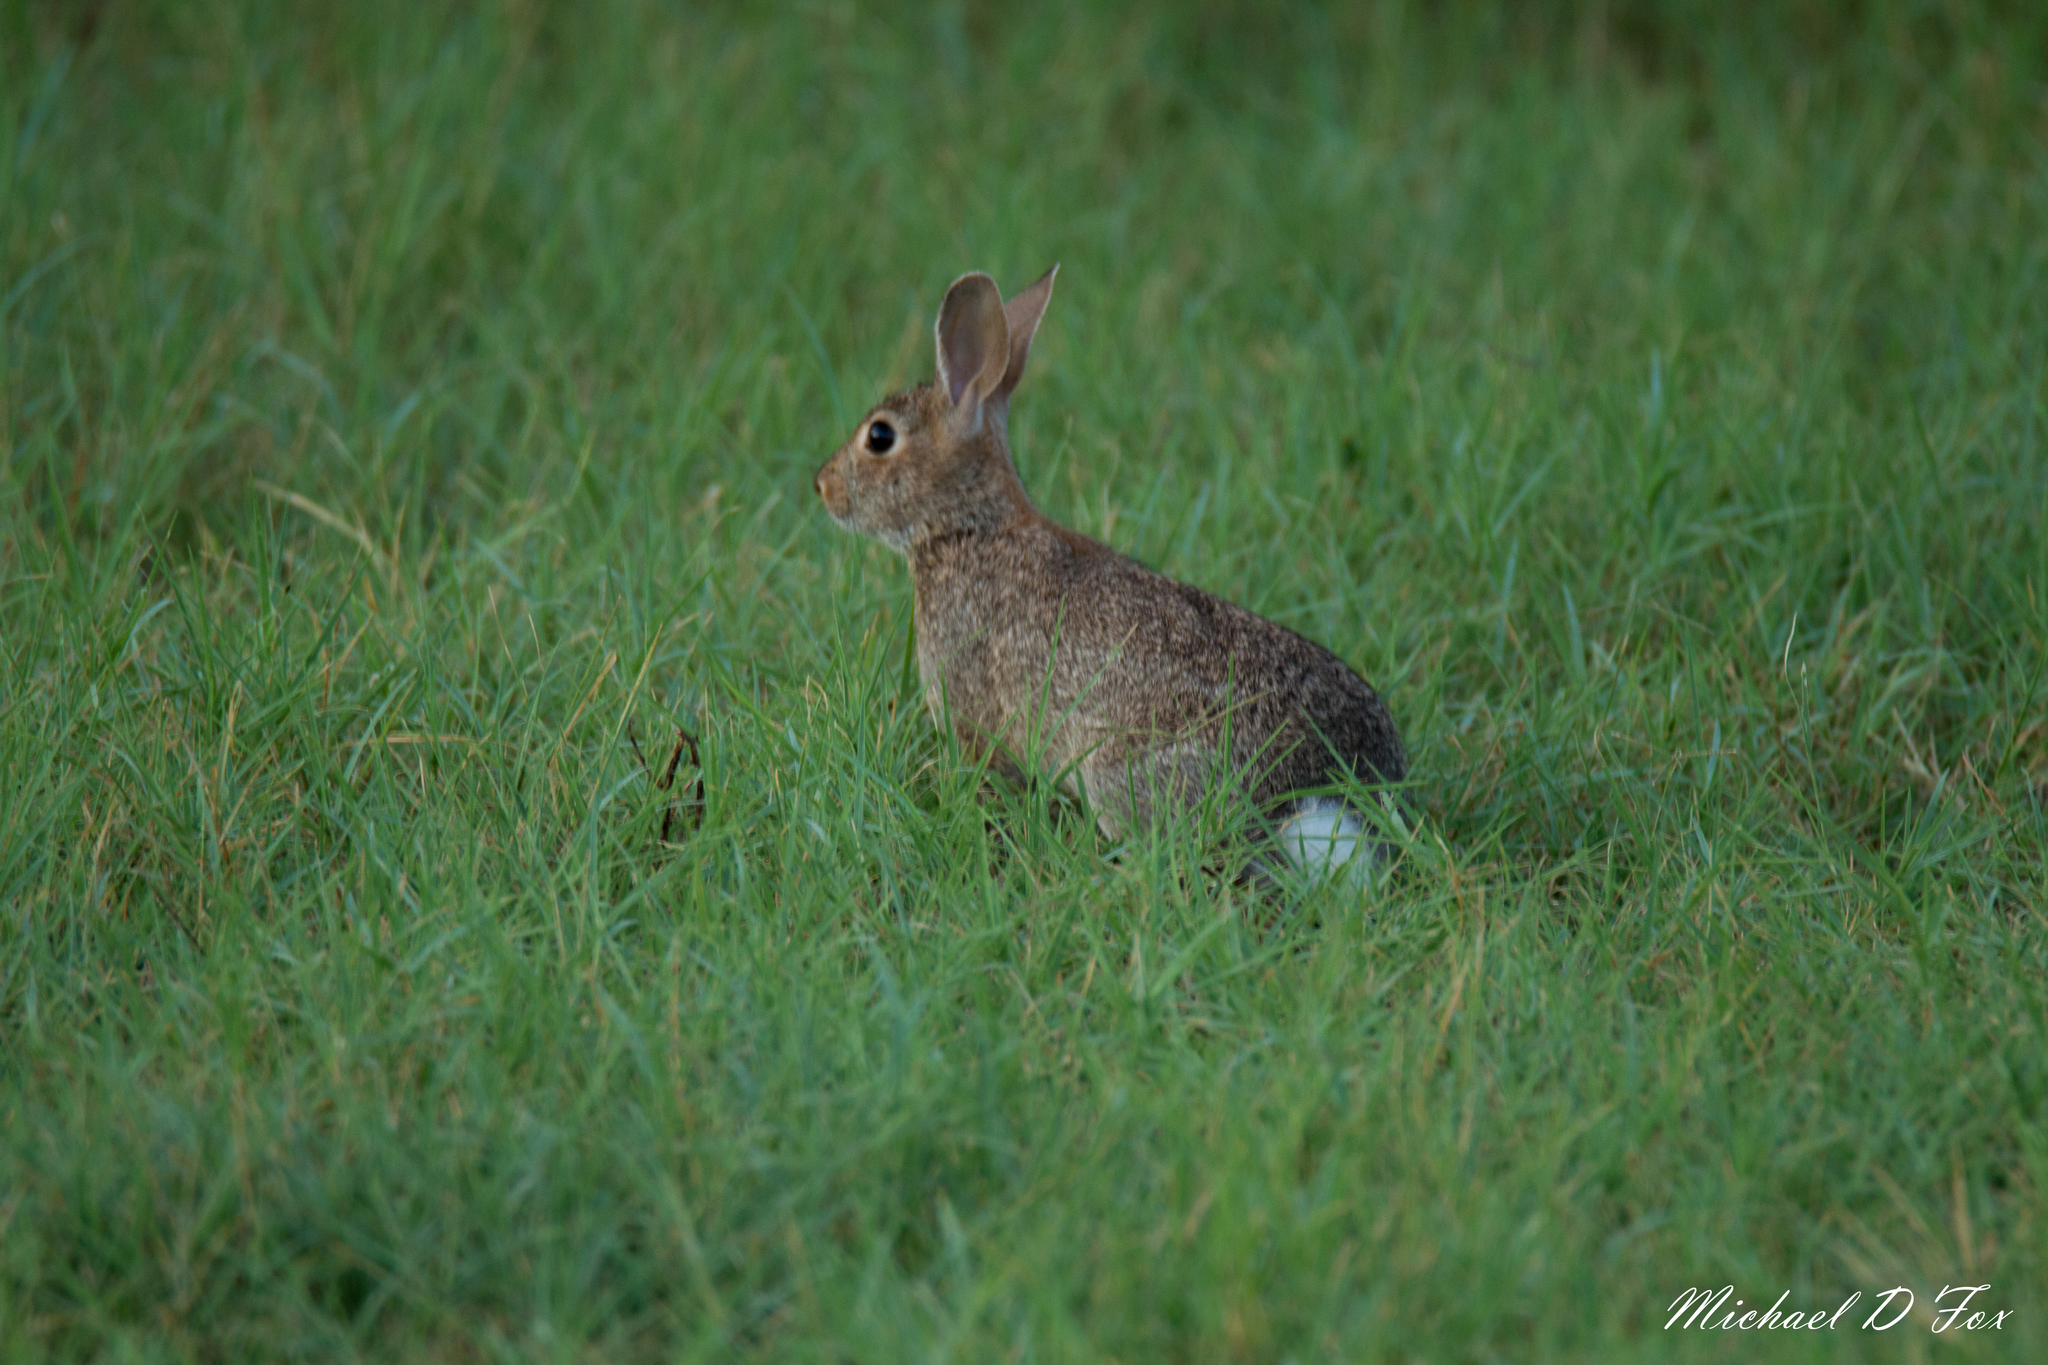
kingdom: Animalia
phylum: Chordata
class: Mammalia
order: Lagomorpha
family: Leporidae
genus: Sylvilagus
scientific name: Sylvilagus floridanus
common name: Eastern cottontail
